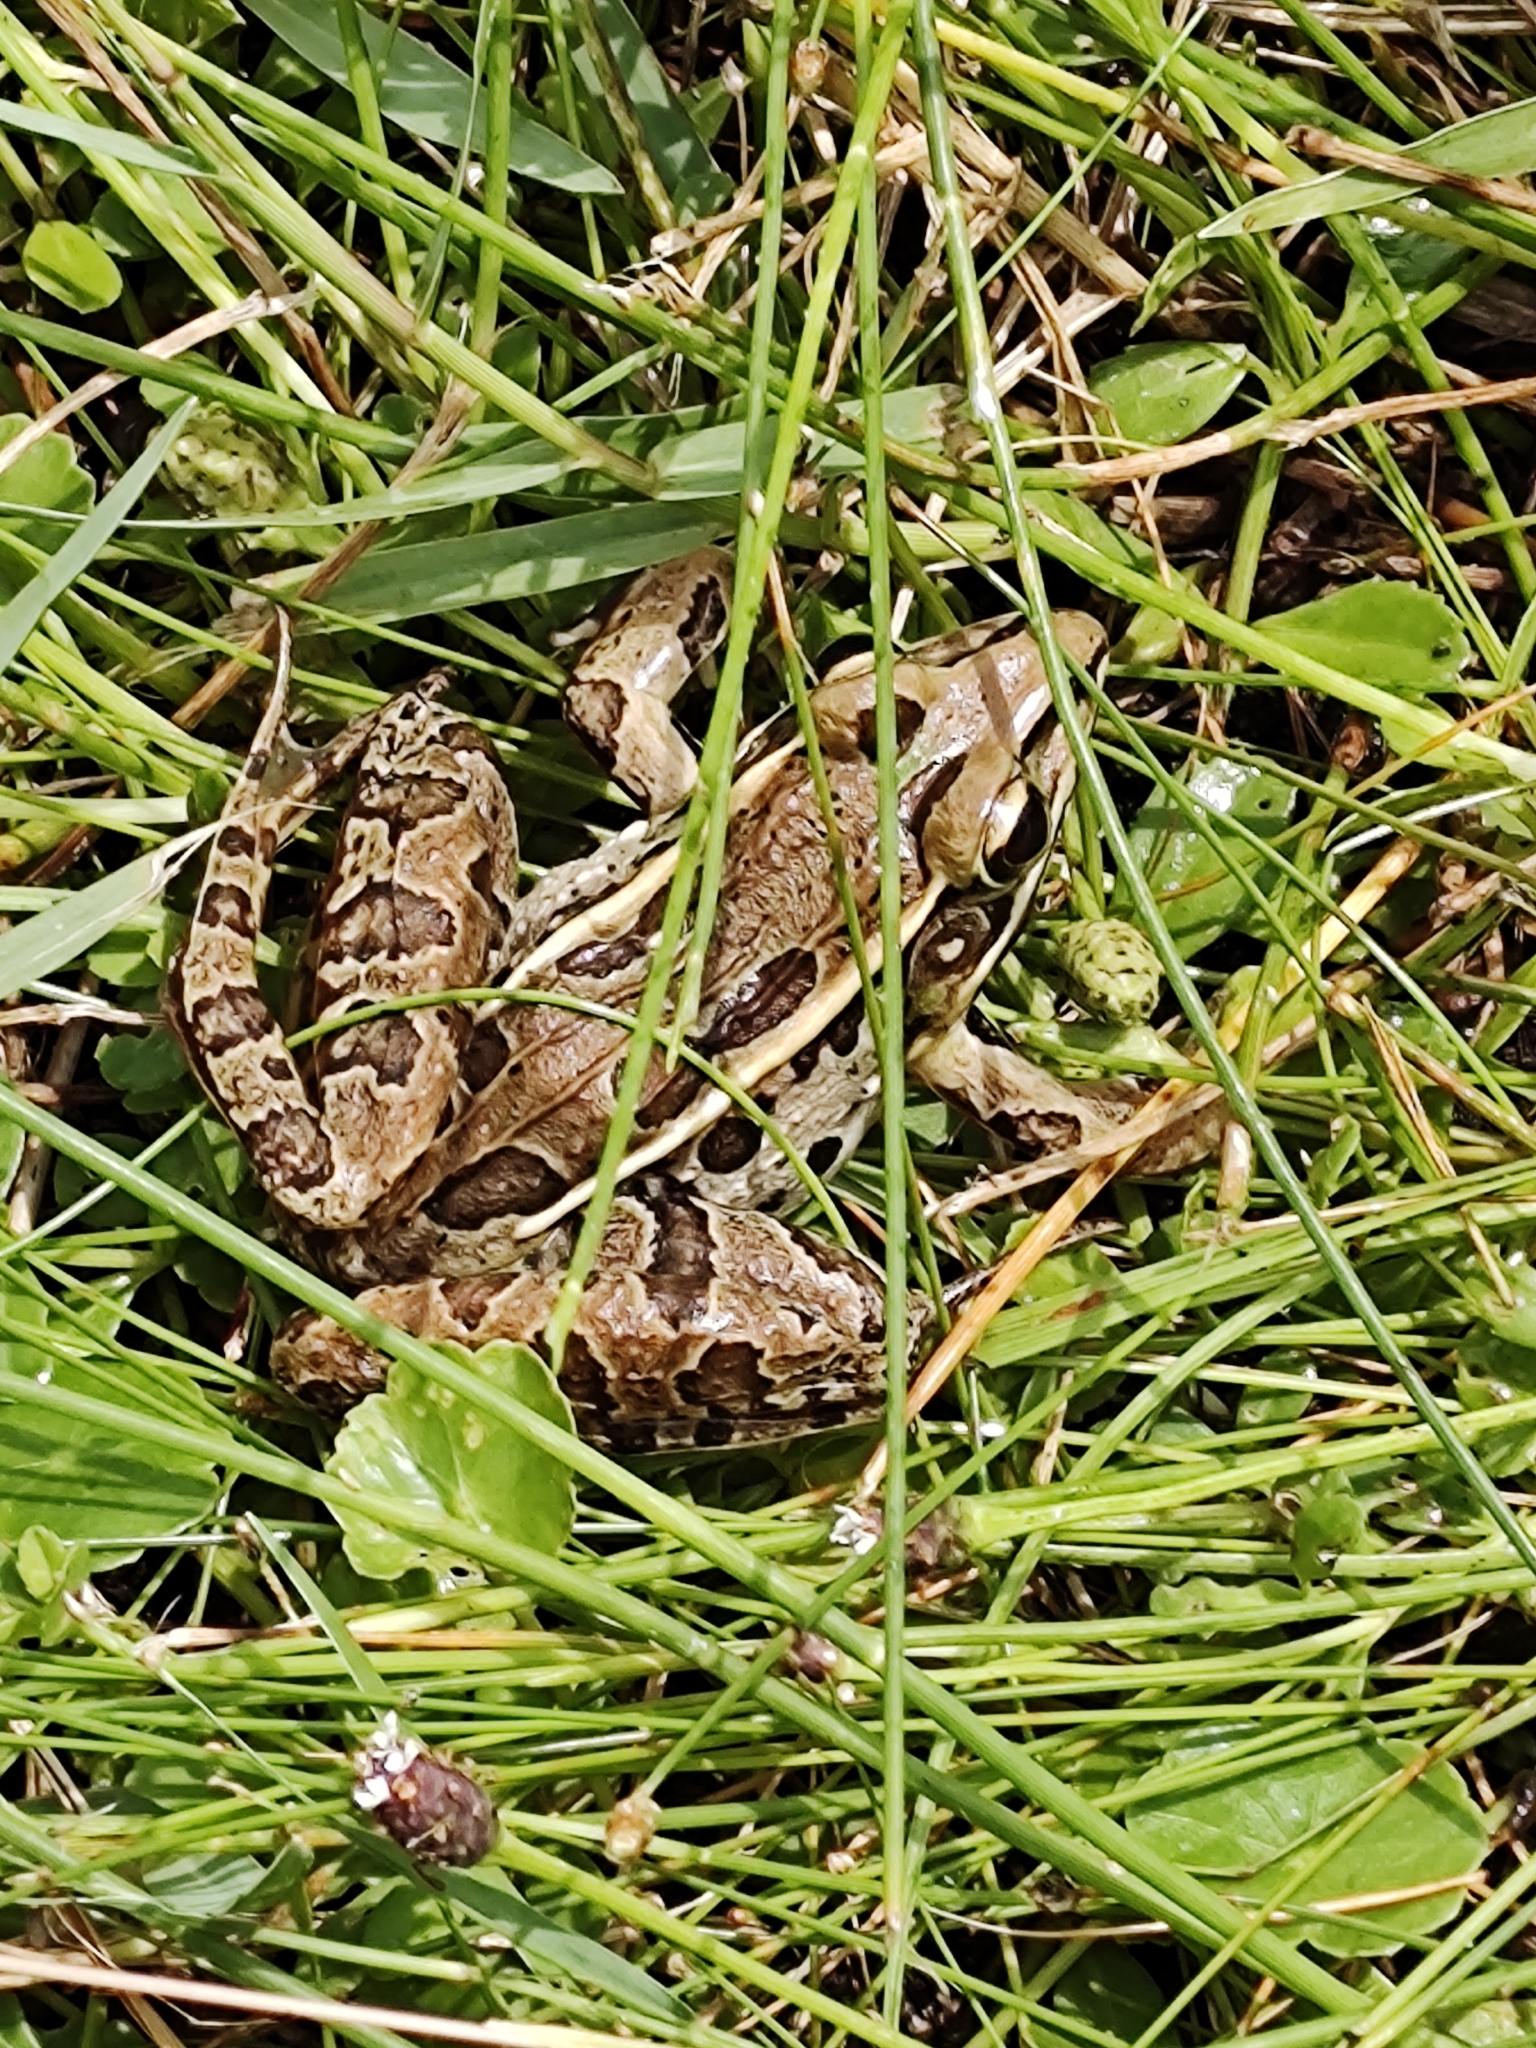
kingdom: Animalia
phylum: Chordata
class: Amphibia
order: Anura
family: Ranidae
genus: Lithobates
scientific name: Lithobates sphenocephalus
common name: Southern leopard frog
